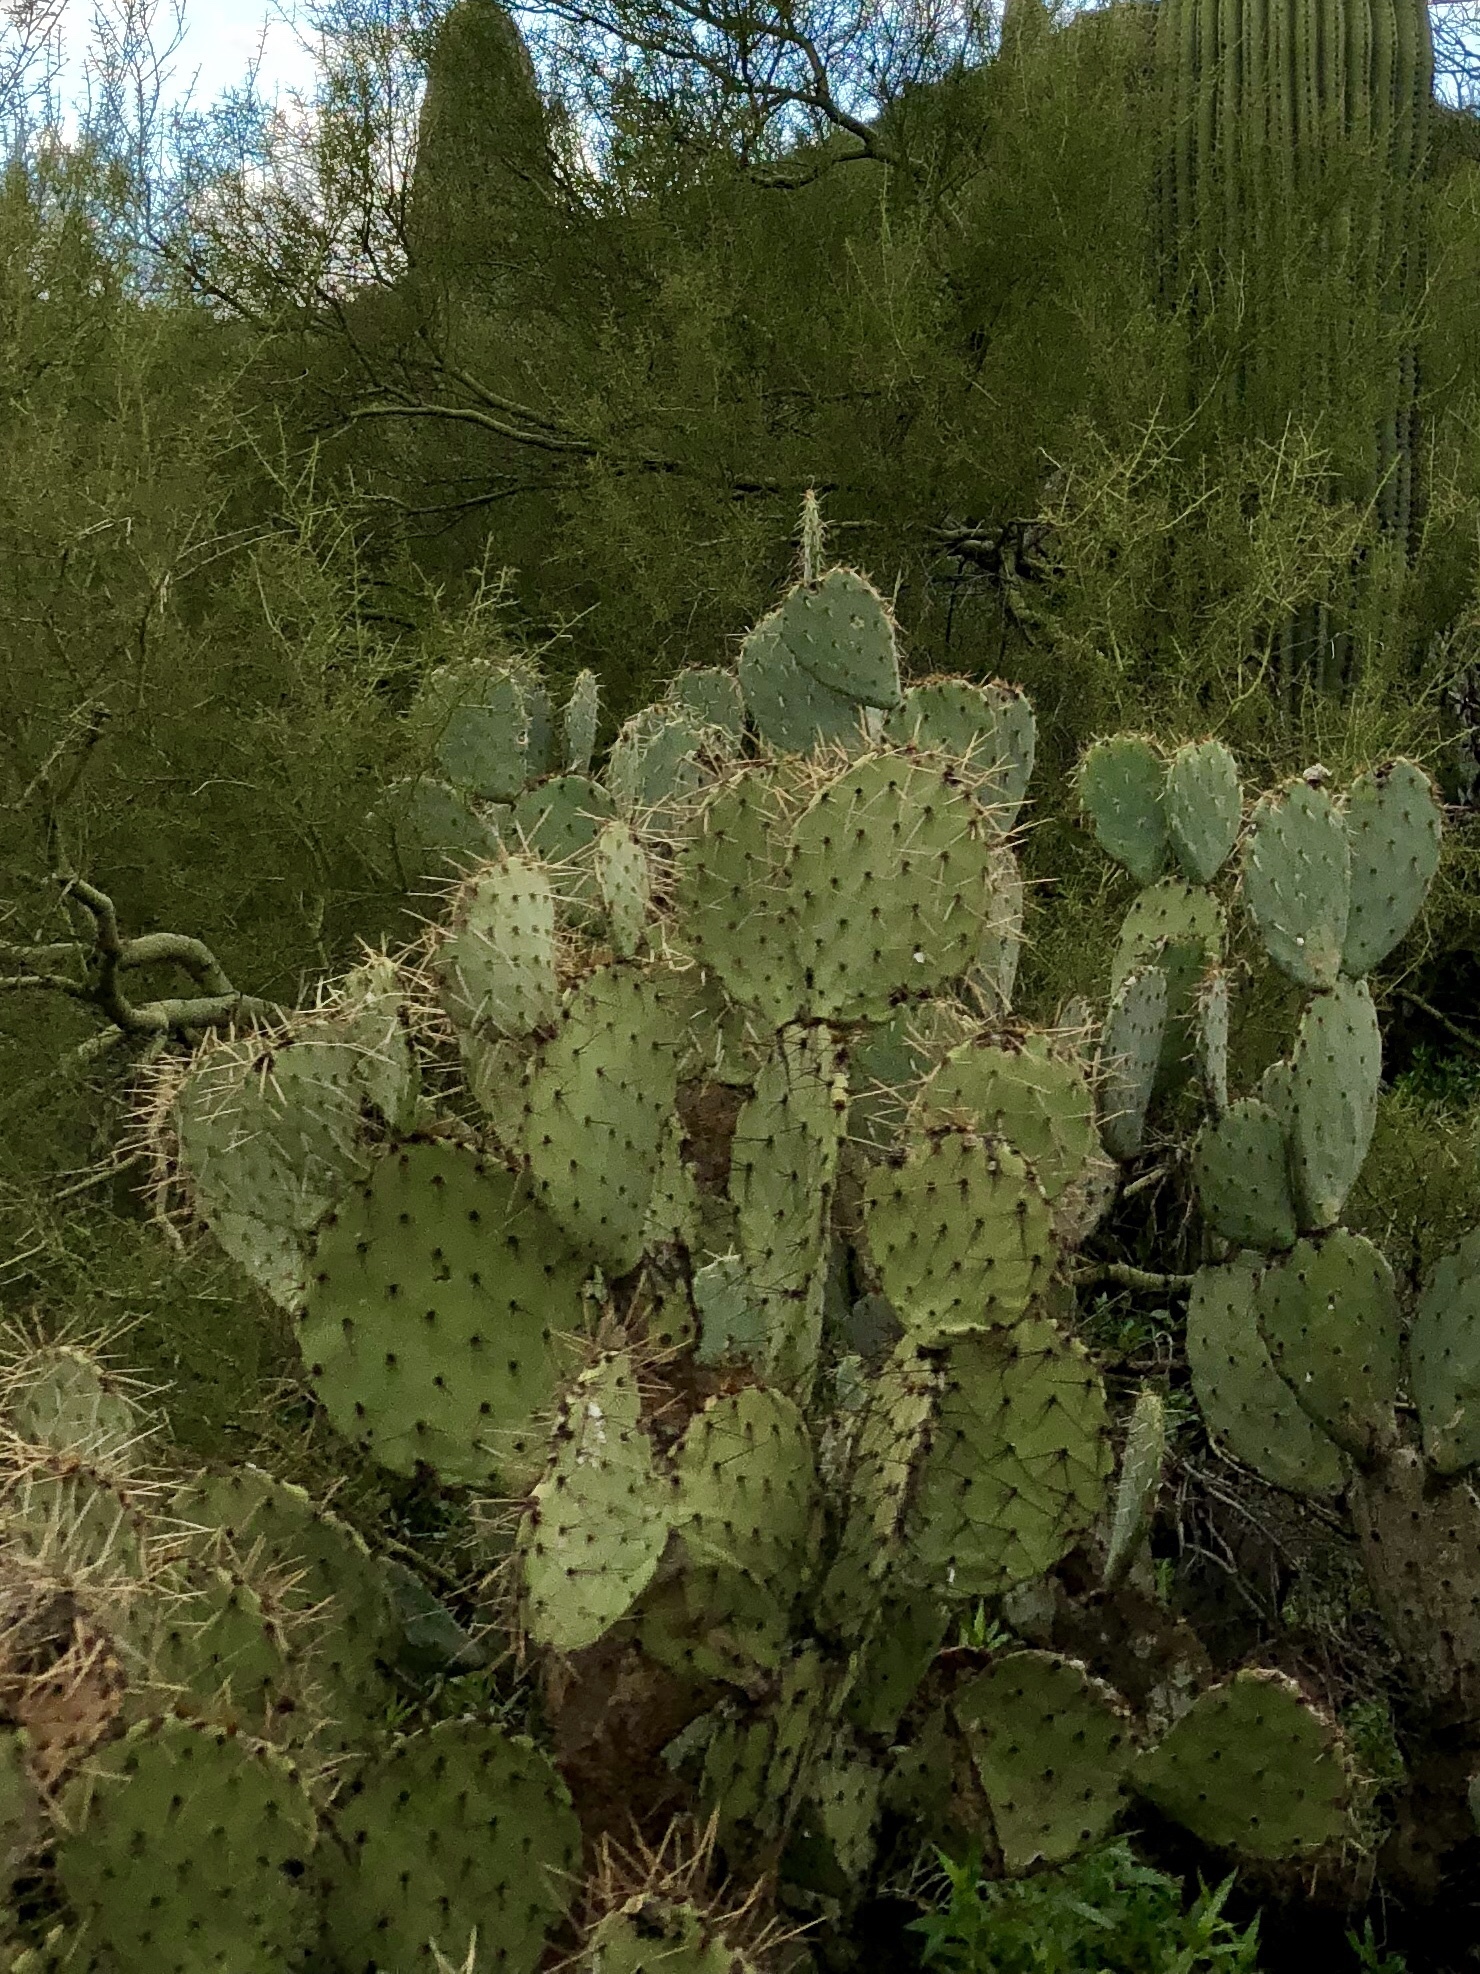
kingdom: Plantae
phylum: Tracheophyta
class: Magnoliopsida
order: Caryophyllales
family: Cactaceae
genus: Opuntia
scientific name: Opuntia engelmannii
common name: Cactus-apple
